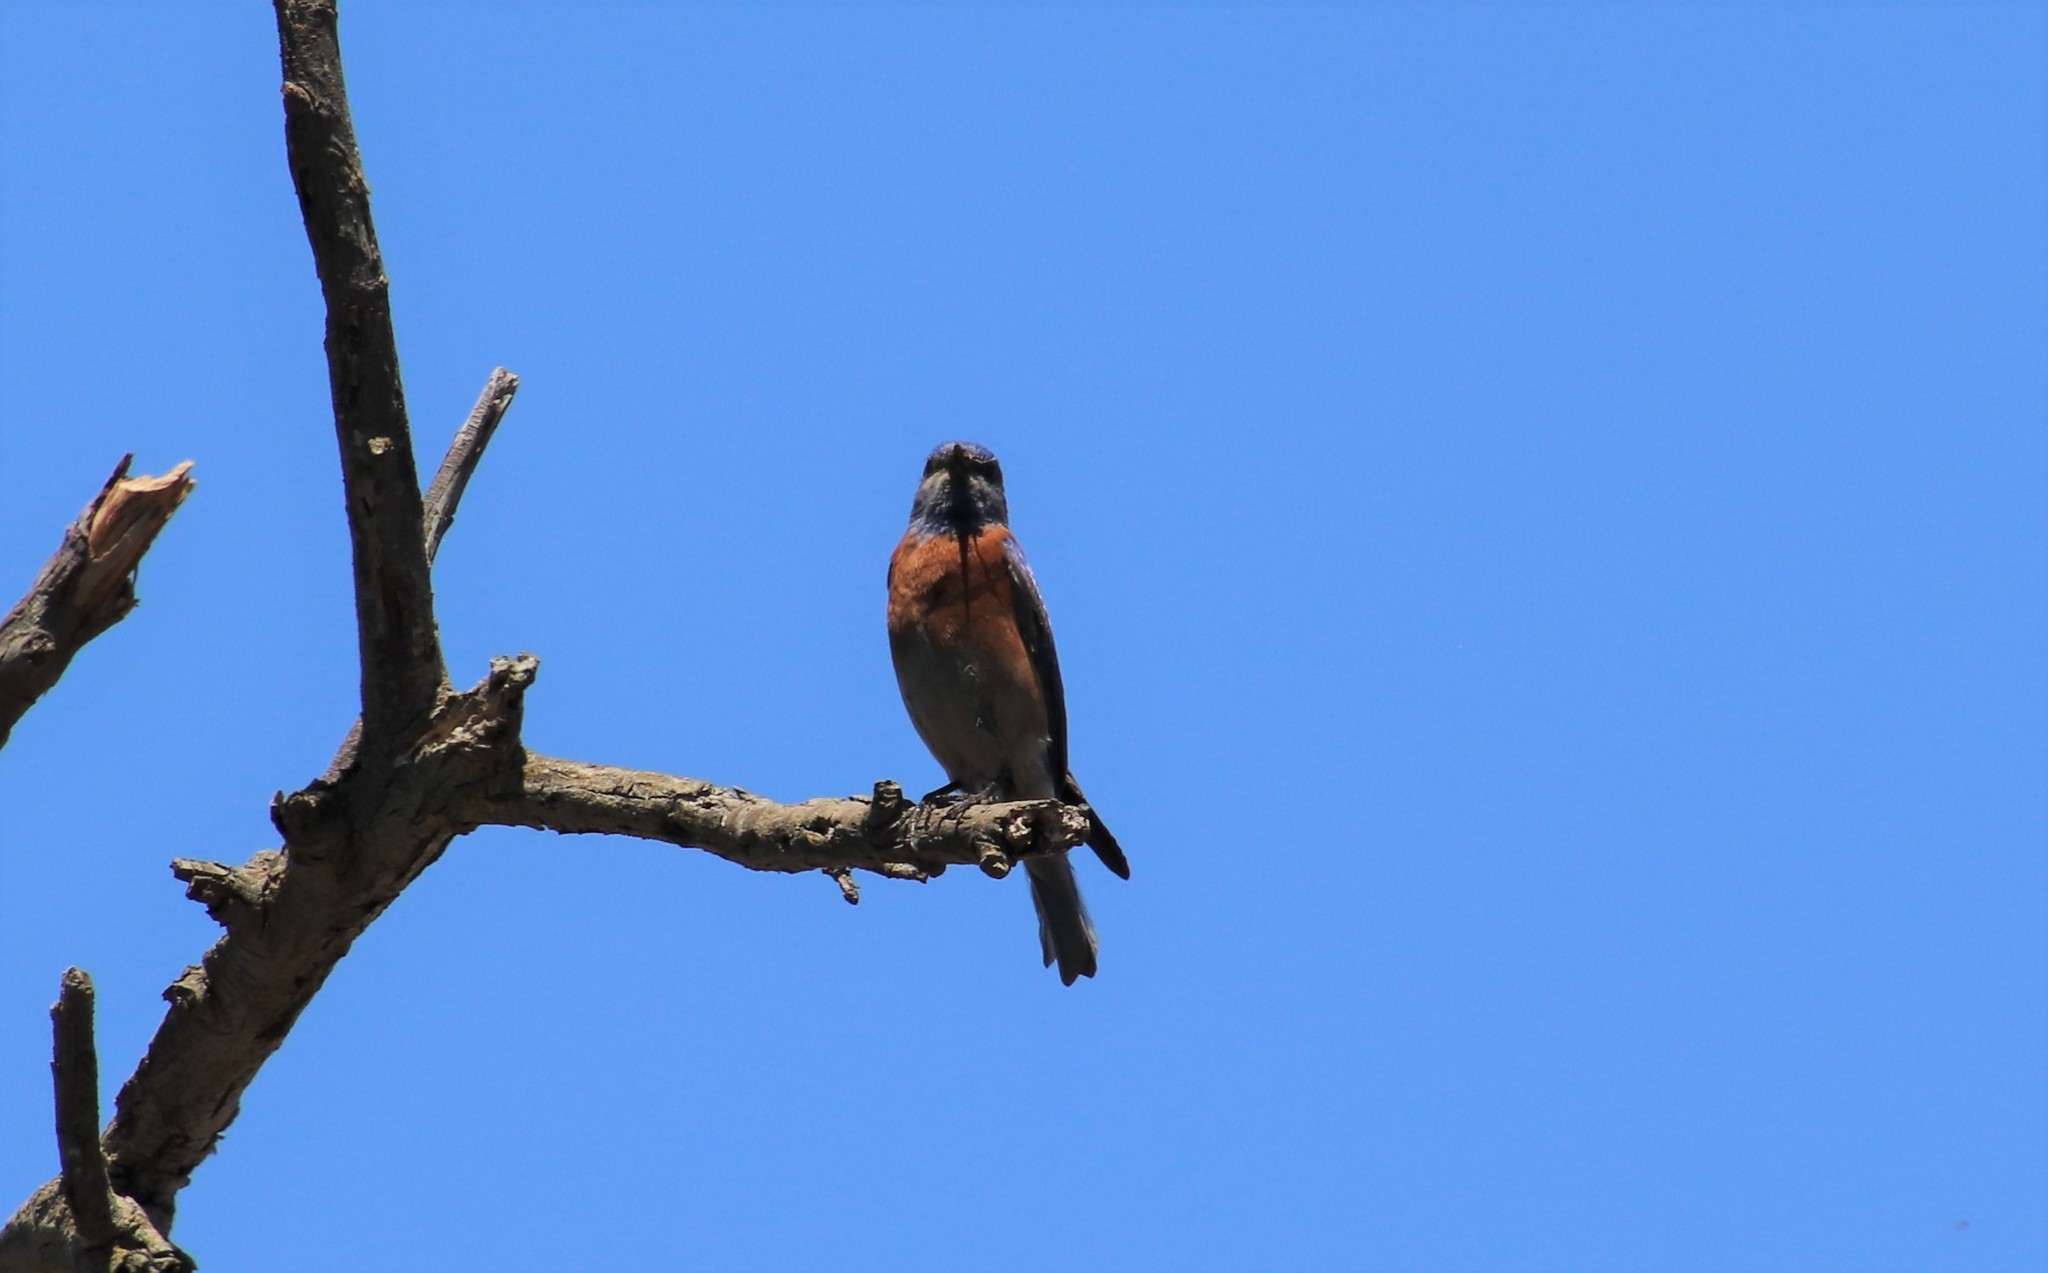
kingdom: Animalia
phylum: Chordata
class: Aves
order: Passeriformes
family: Turdidae
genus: Sialia
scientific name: Sialia mexicana
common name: Western bluebird
